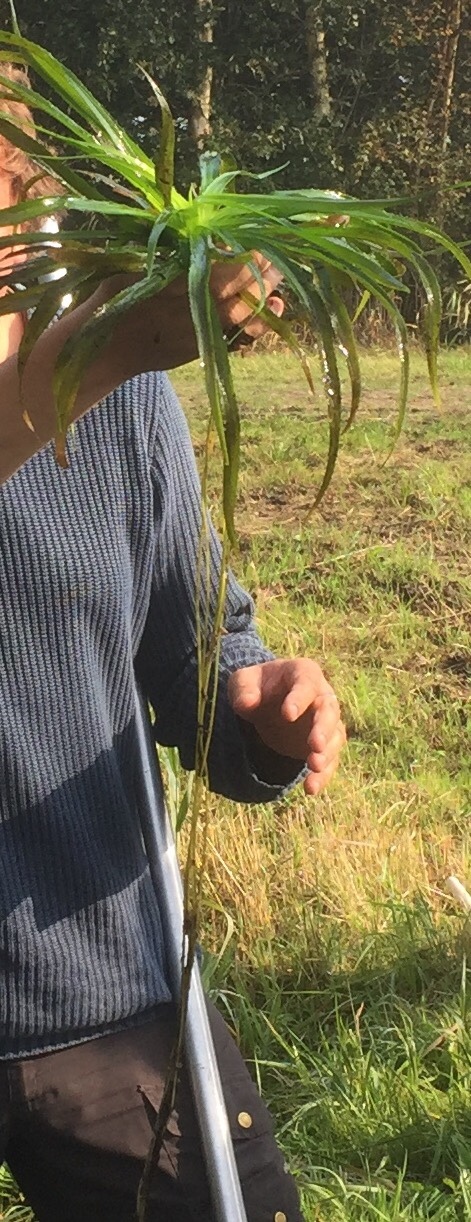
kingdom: Plantae
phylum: Tracheophyta
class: Liliopsida
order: Alismatales
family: Hydrocharitaceae
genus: Stratiotes
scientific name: Stratiotes aloides
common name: Water-soldier
